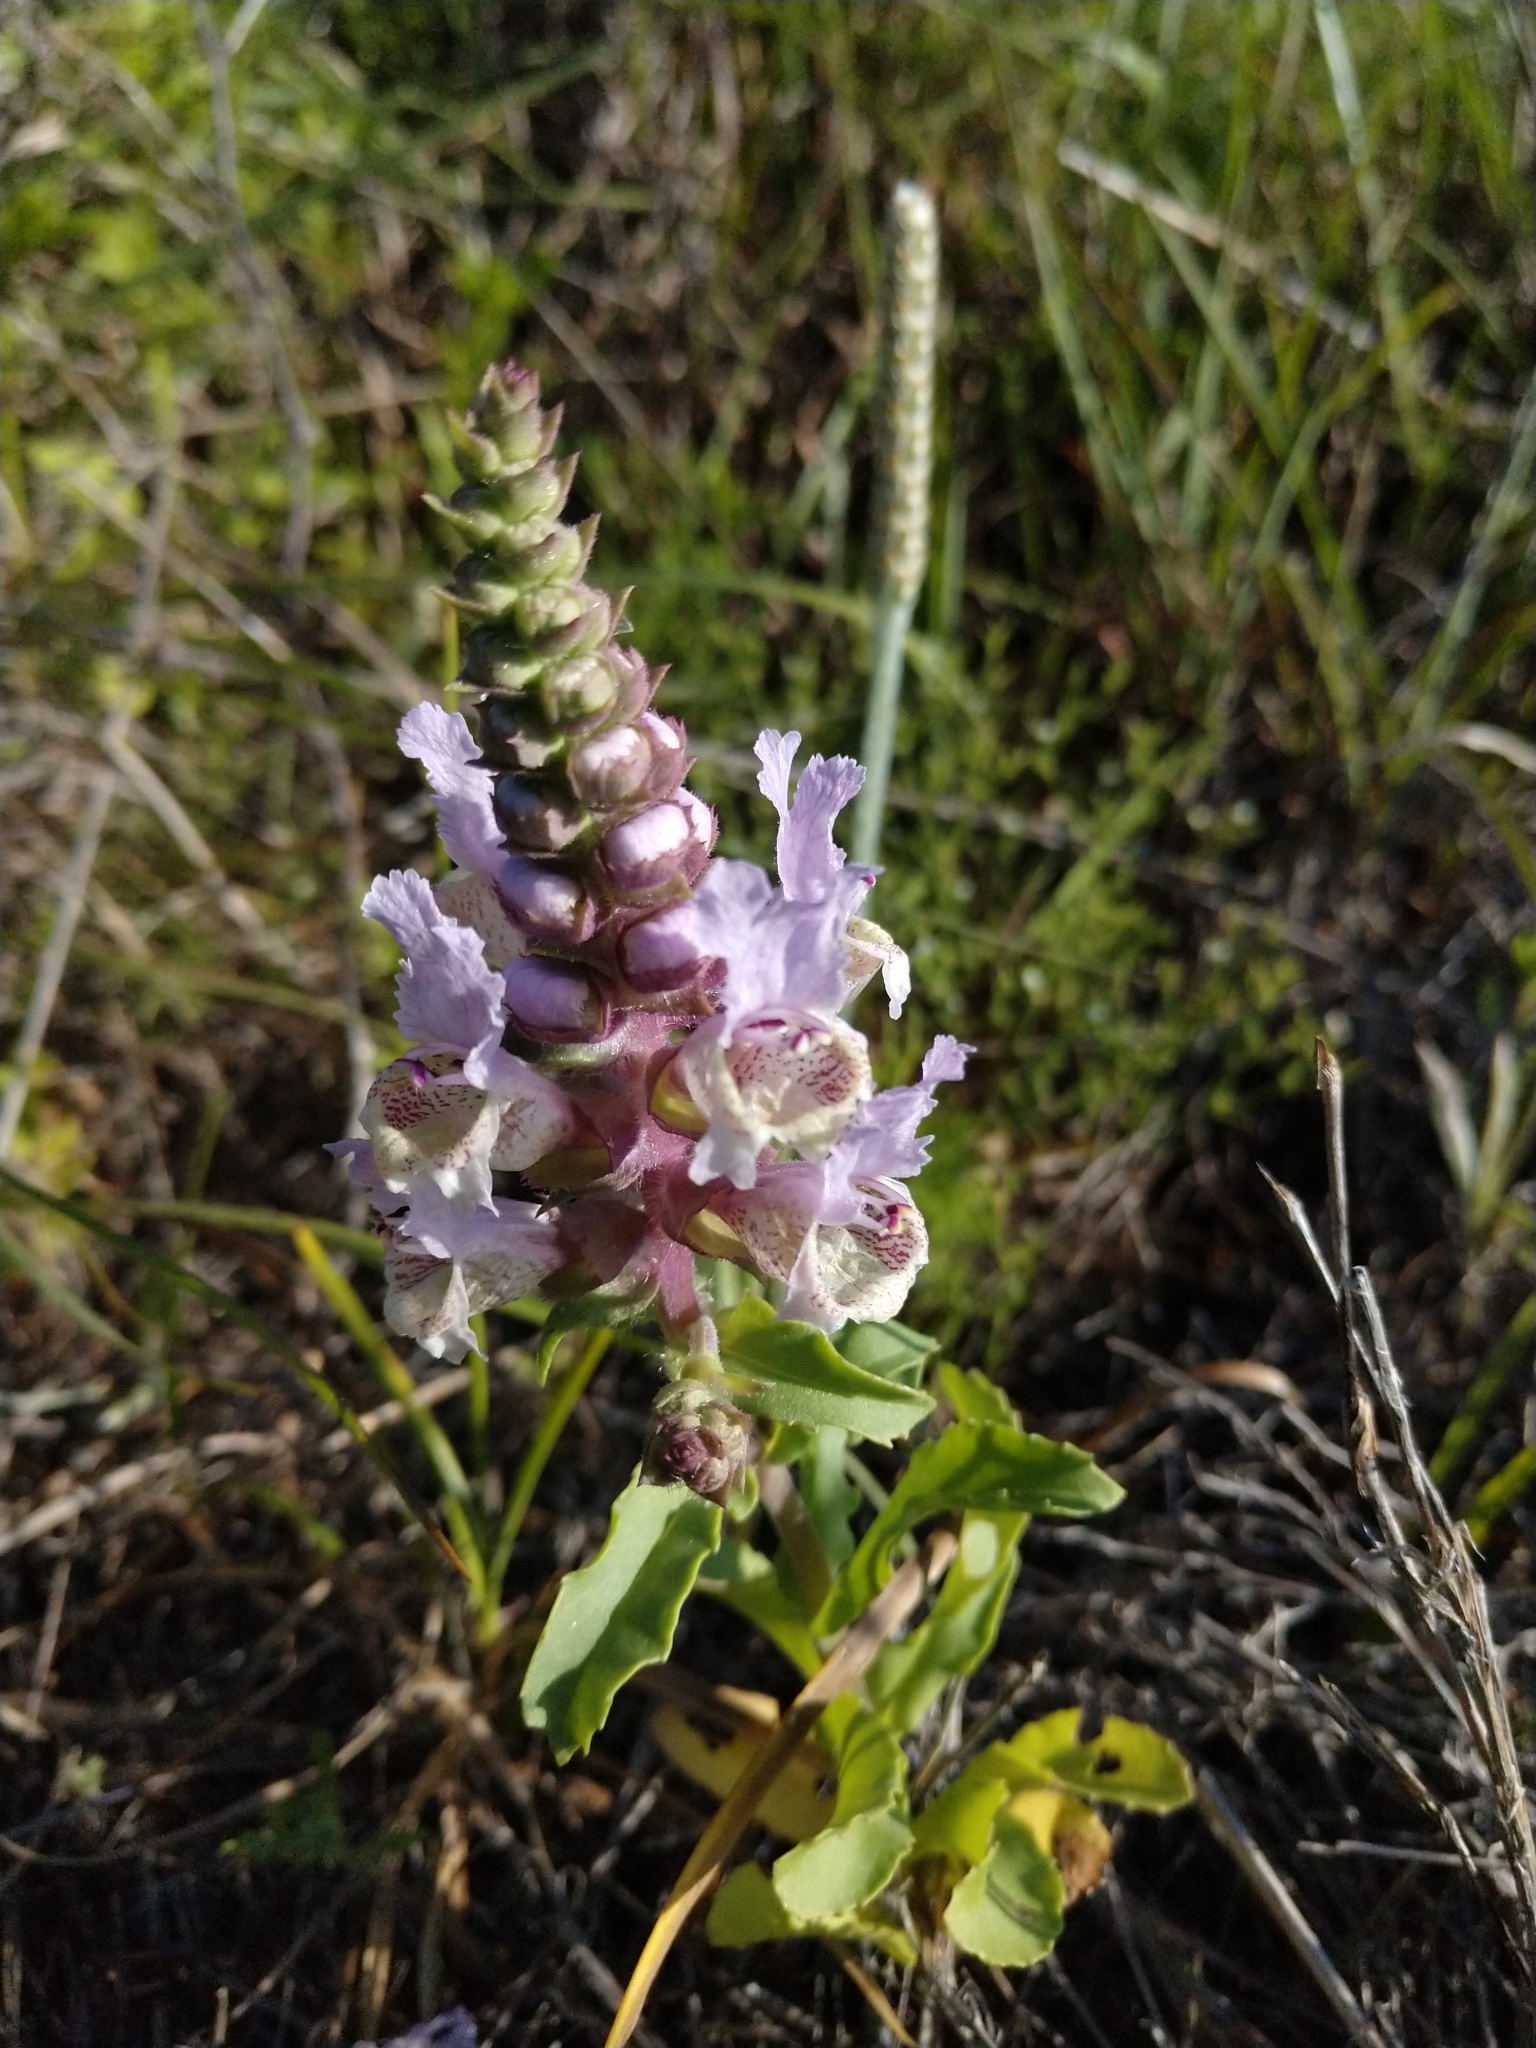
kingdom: Plantae
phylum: Tracheophyta
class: Magnoliopsida
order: Lamiales
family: Lamiaceae
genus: Brazoria
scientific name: Brazoria truncata
